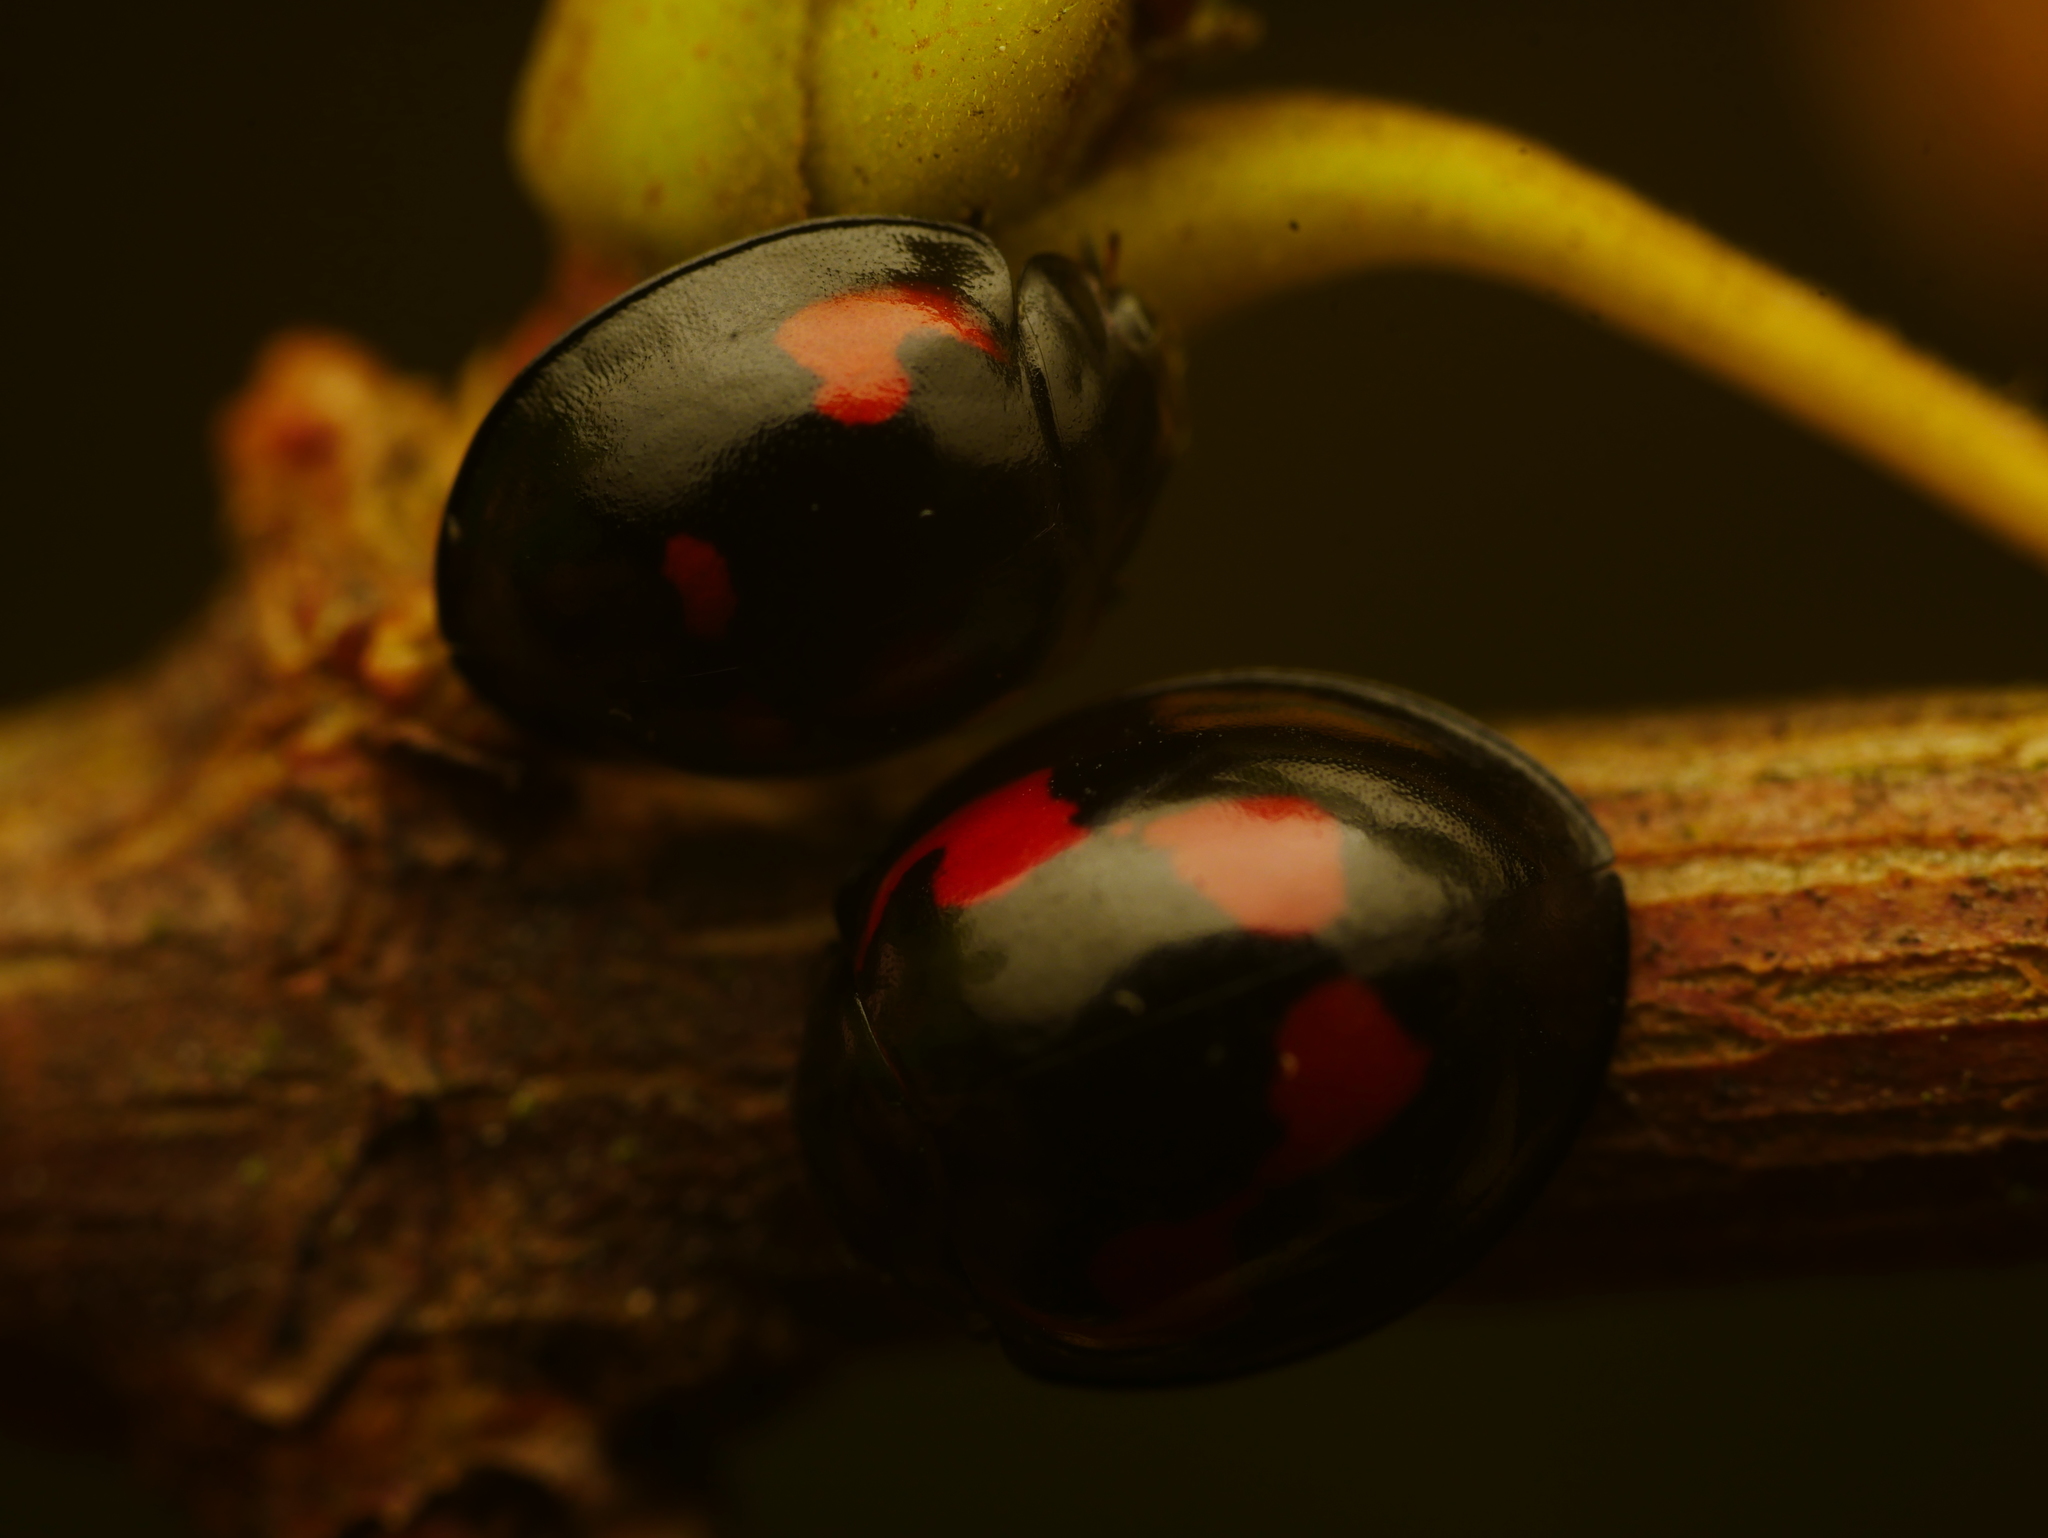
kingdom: Animalia
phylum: Arthropoda
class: Insecta
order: Coleoptera
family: Coccinellidae
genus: Brumus
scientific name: Brumus quadripustulatus
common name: Ladybird beetle
